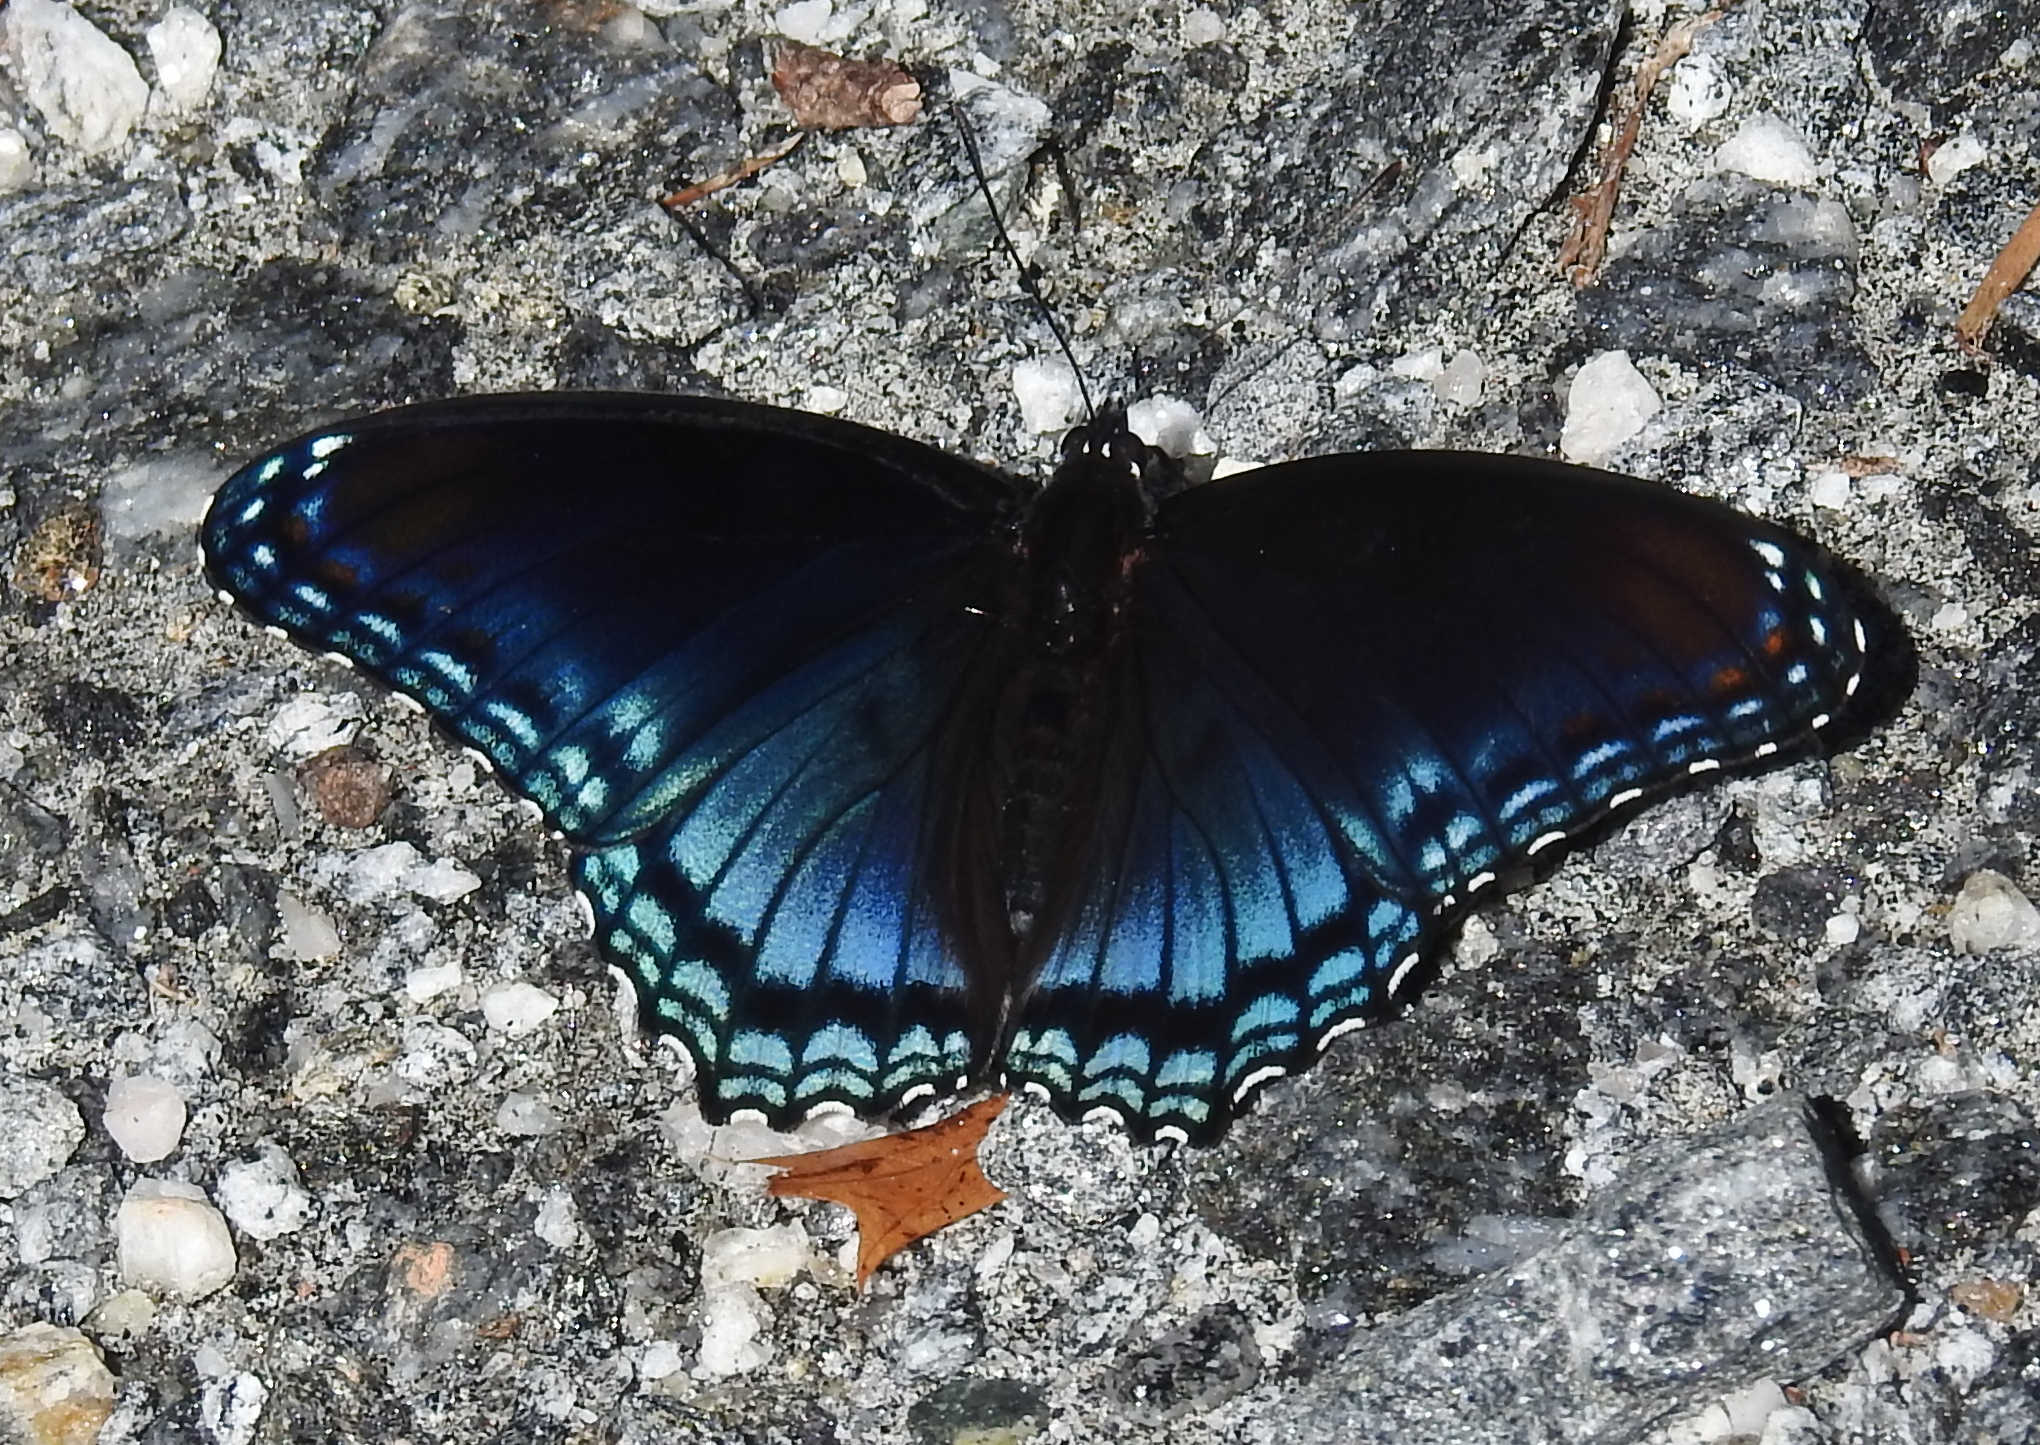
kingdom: Animalia
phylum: Arthropoda
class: Insecta
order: Lepidoptera
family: Nymphalidae
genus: Limenitis
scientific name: Limenitis astyanax
